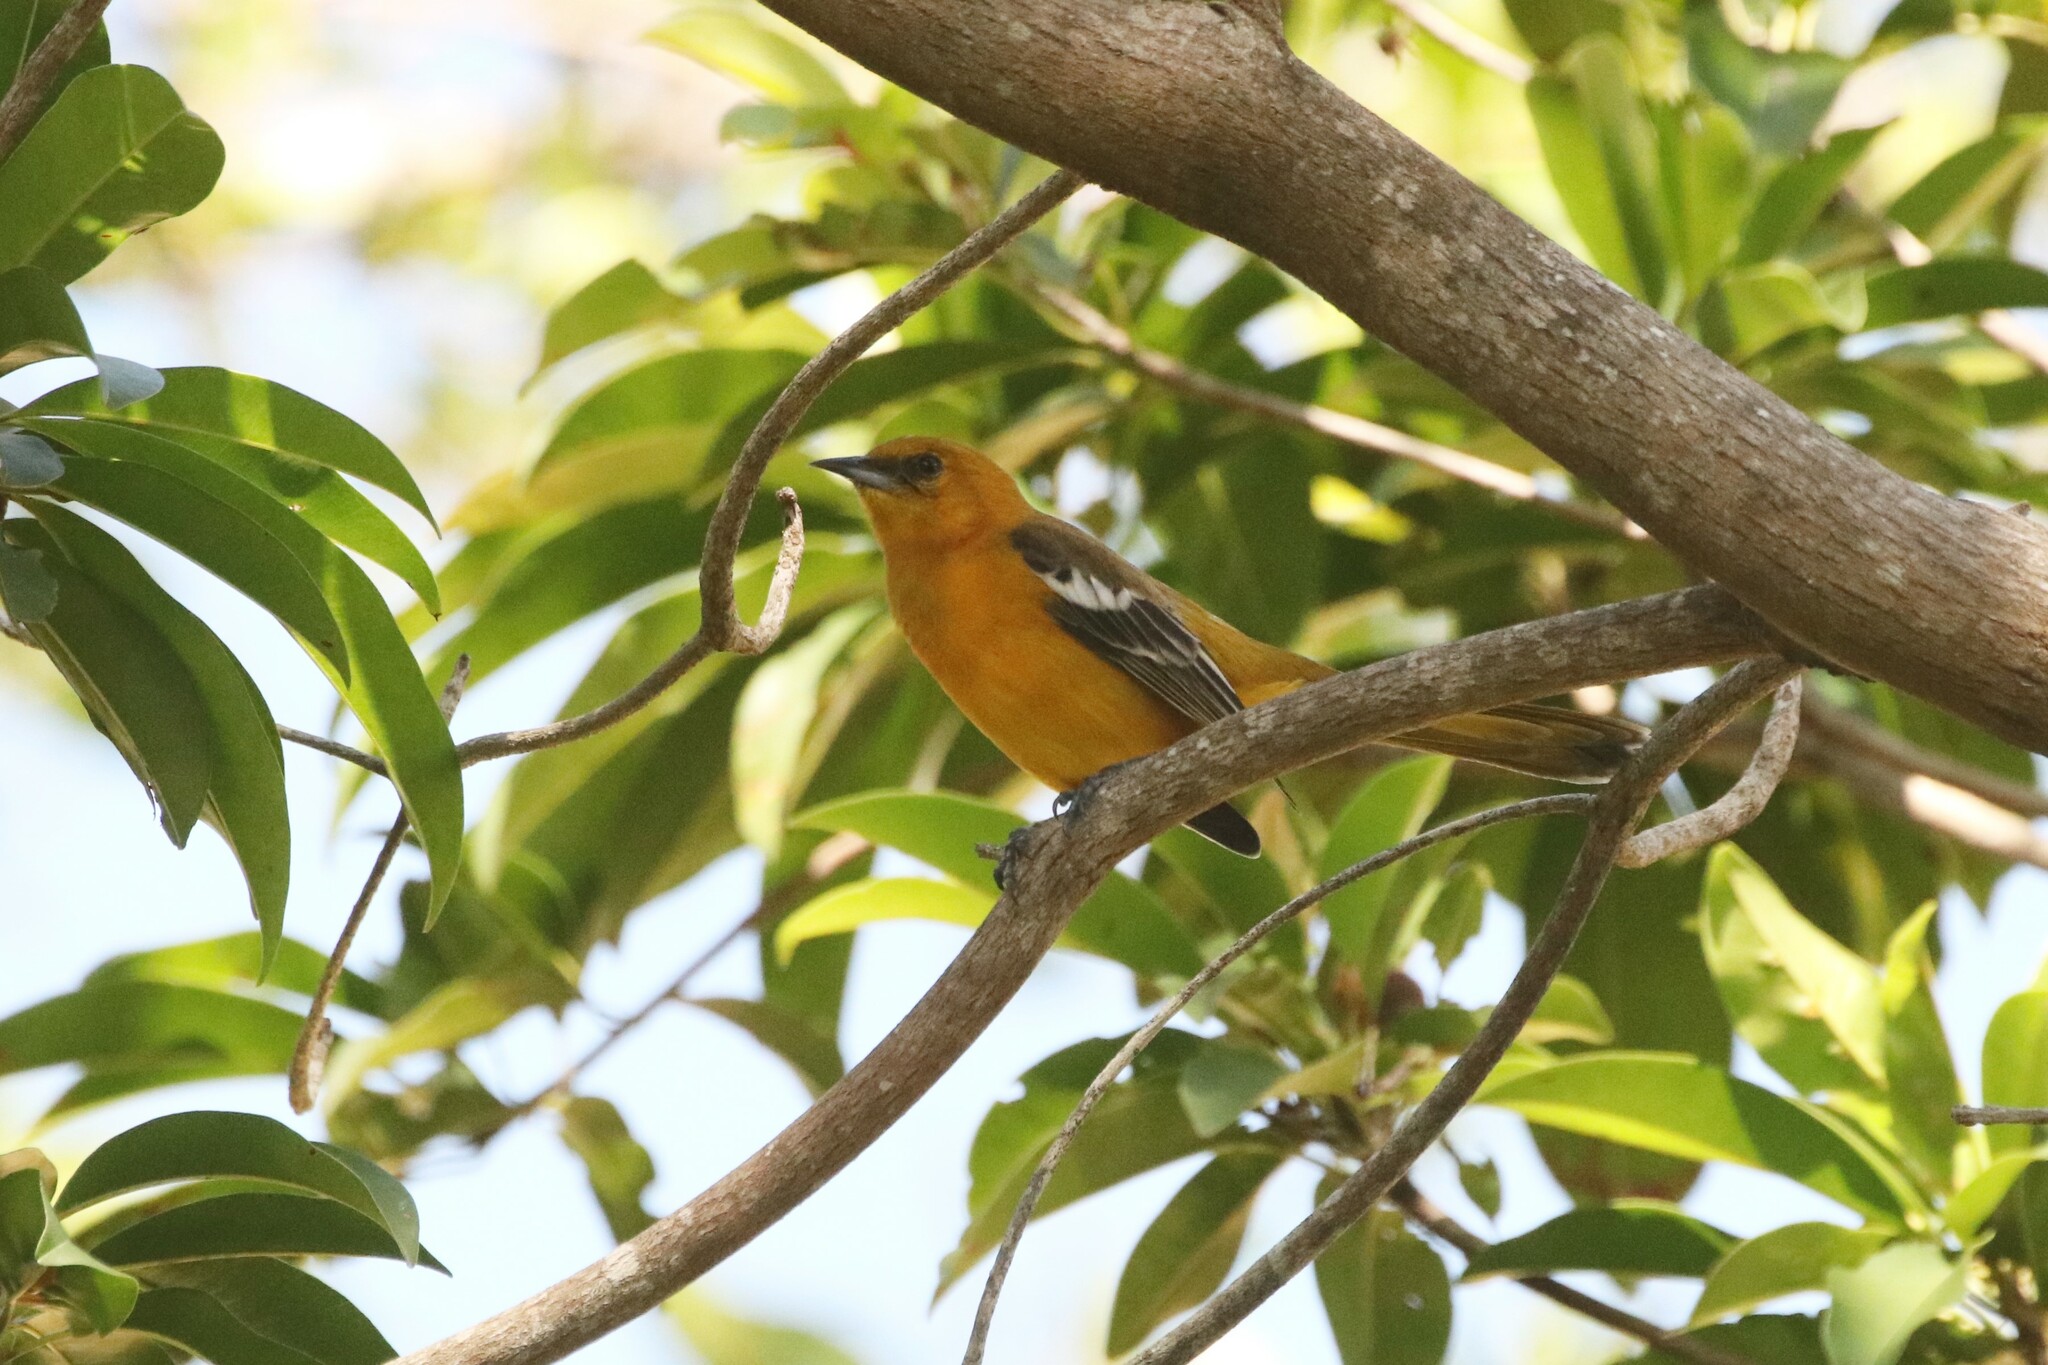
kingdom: Animalia
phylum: Chordata
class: Aves
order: Passeriformes
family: Icteridae
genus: Icterus
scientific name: Icterus auratus
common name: Orange oriole
